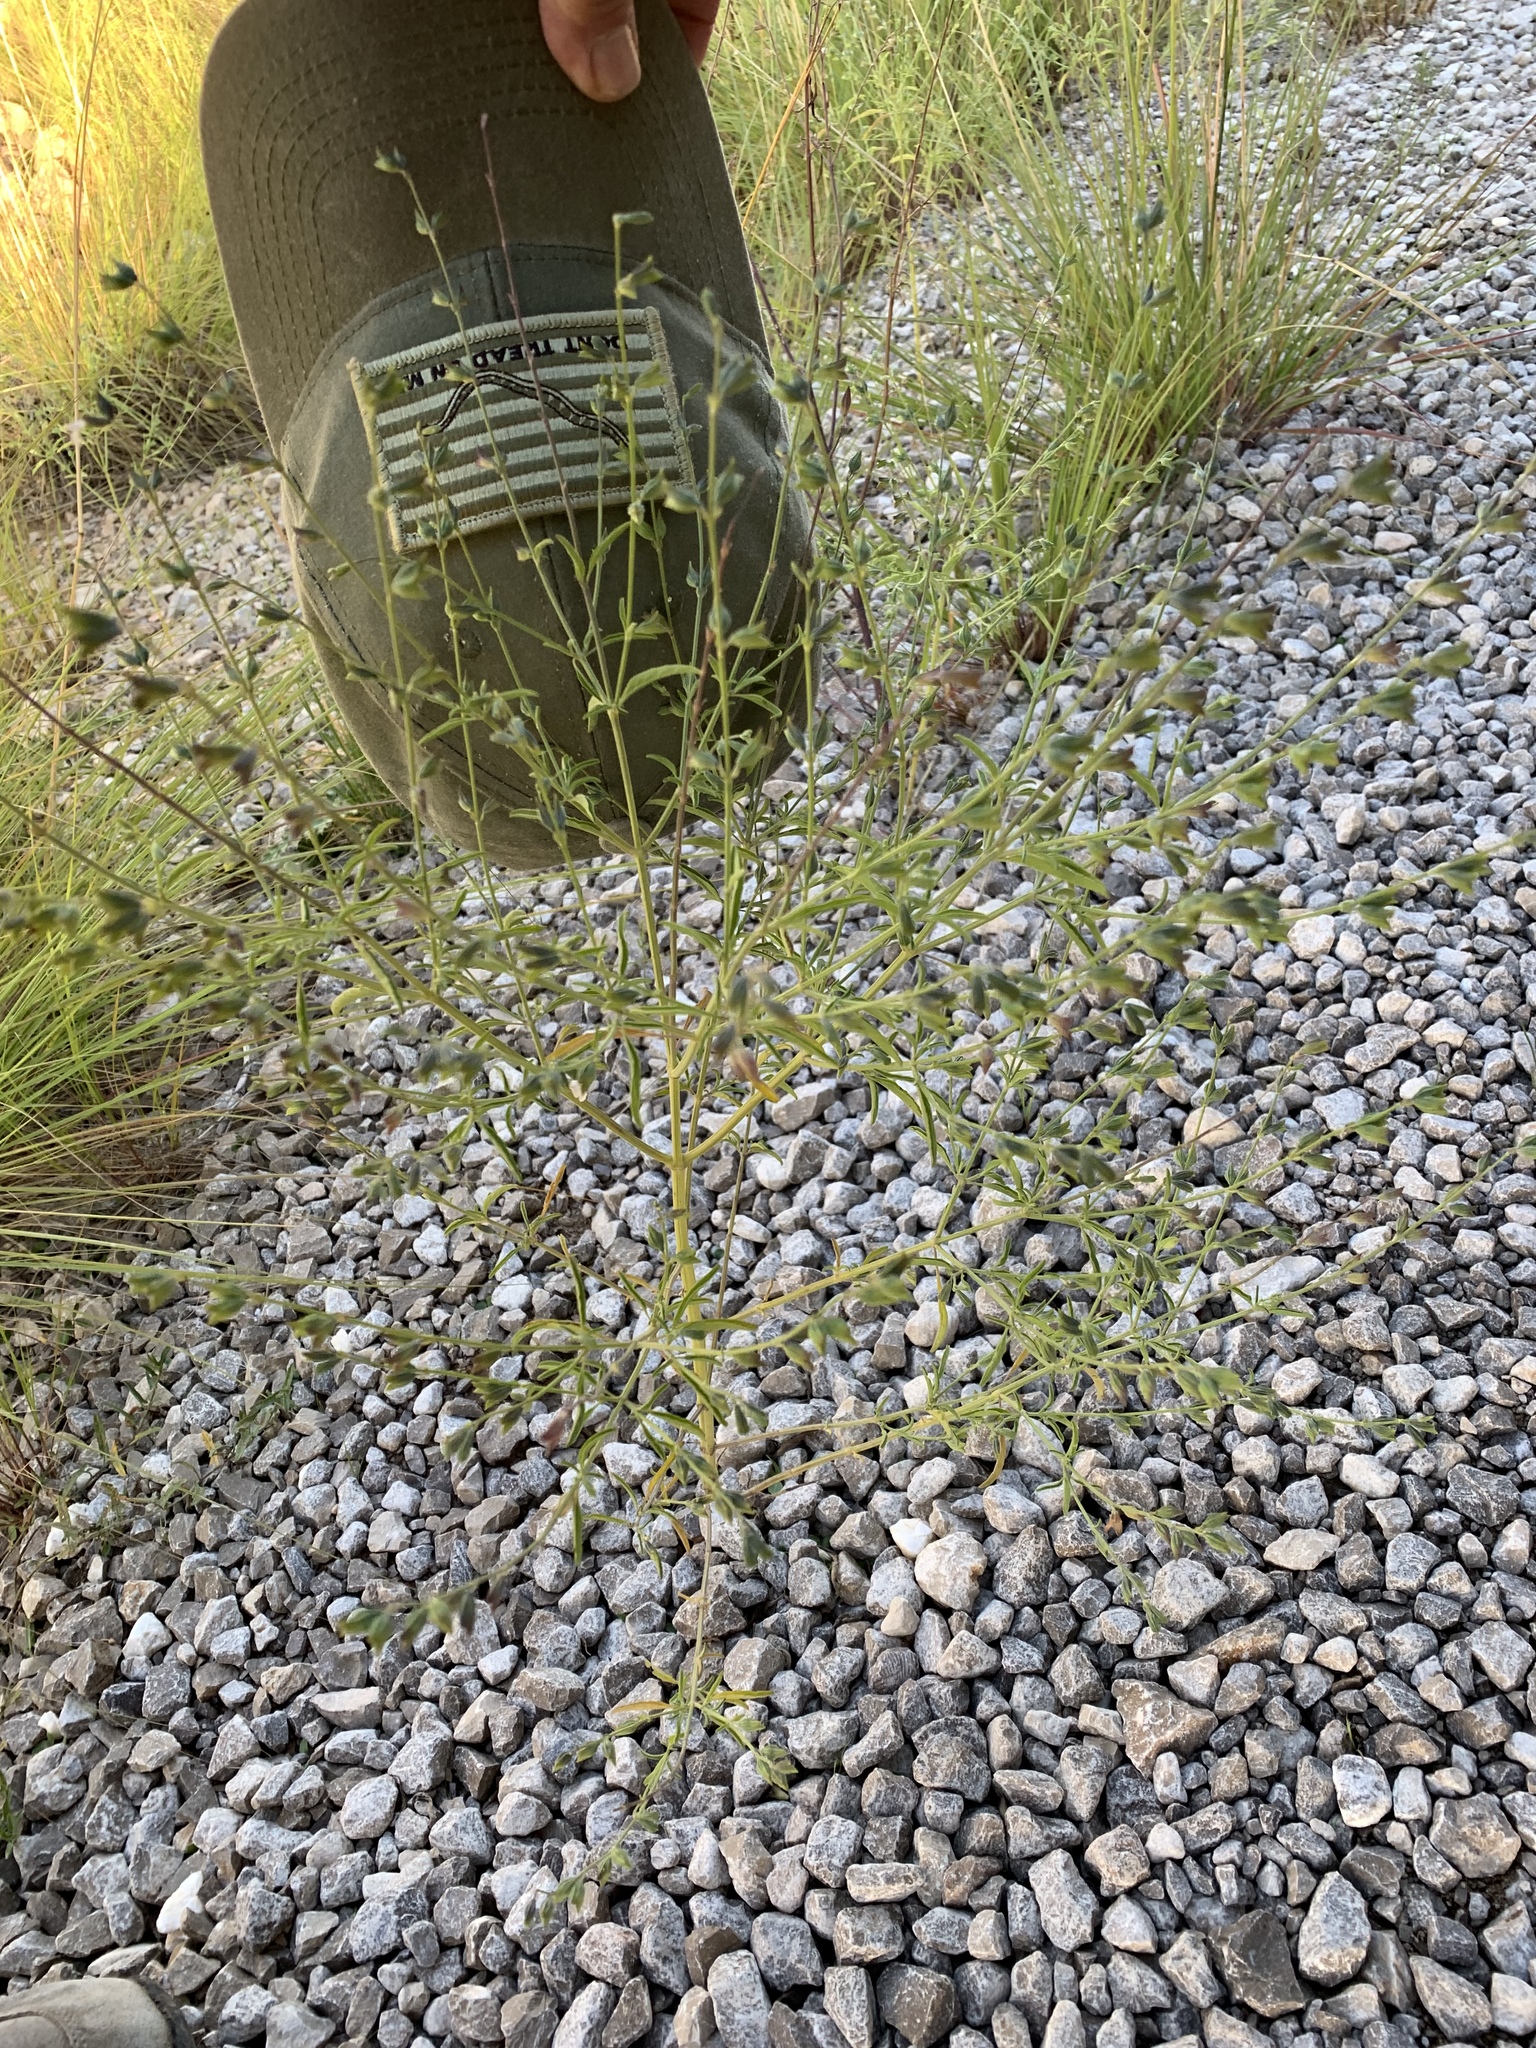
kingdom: Plantae
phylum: Tracheophyta
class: Magnoliopsida
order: Lamiales
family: Lamiaceae
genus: Salvia
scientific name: Salvia reflexa
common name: Mintweed
